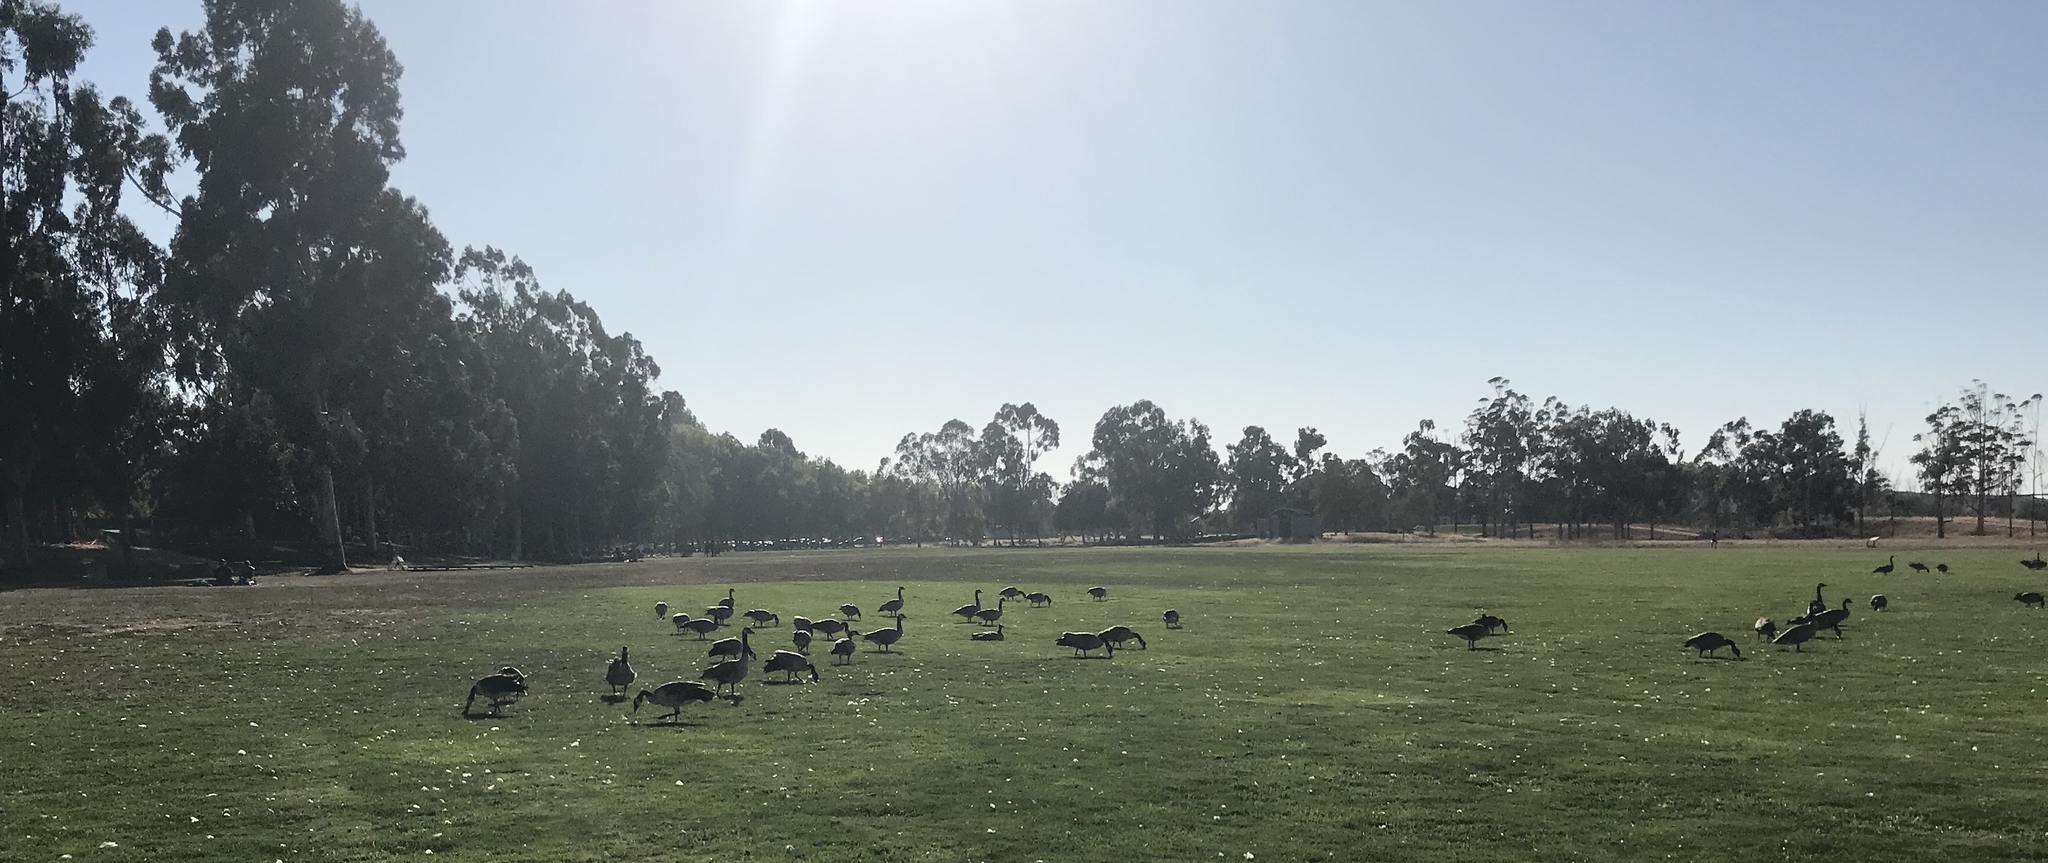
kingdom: Animalia
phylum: Chordata
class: Aves
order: Anseriformes
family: Anatidae
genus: Branta
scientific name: Branta canadensis
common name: Canada goose
